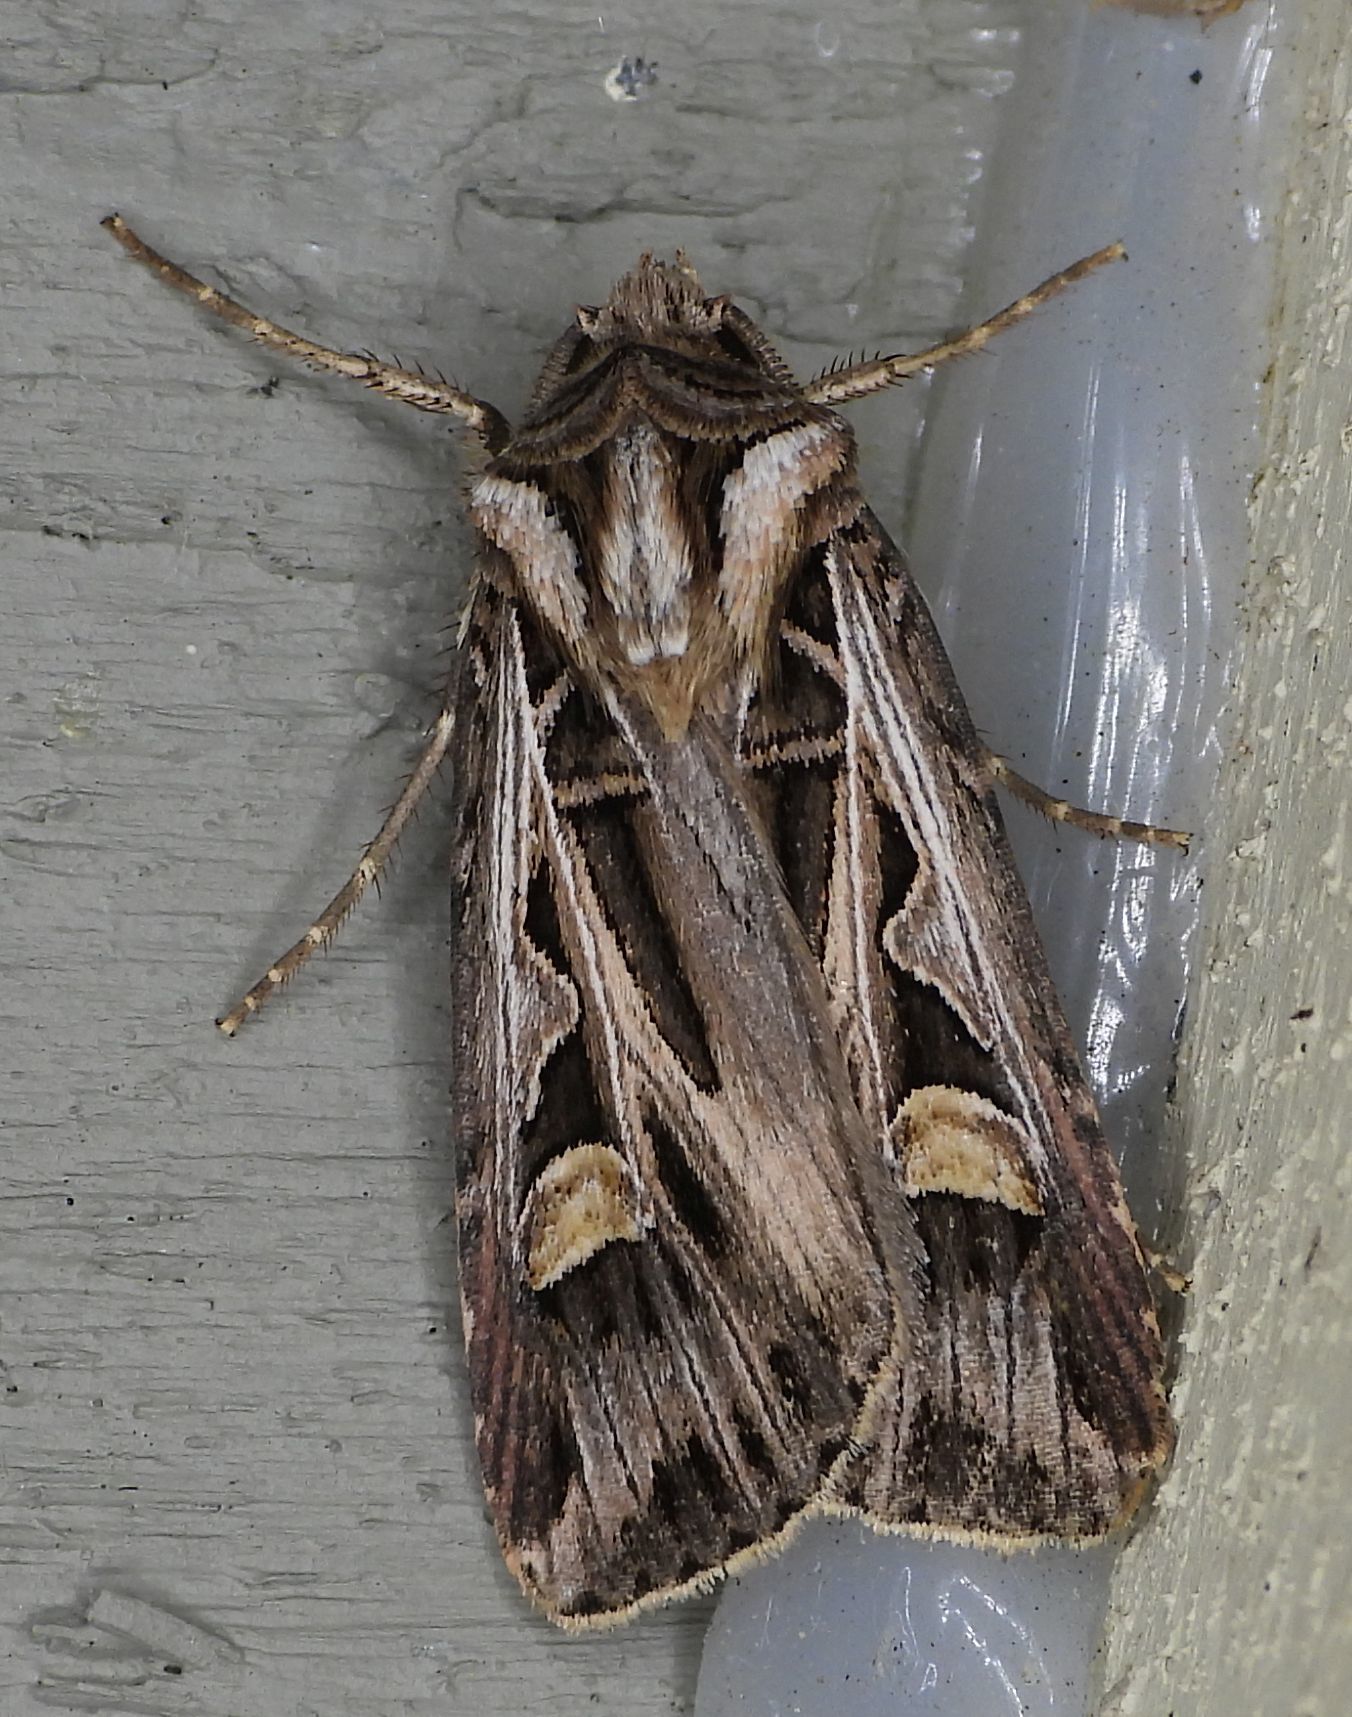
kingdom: Animalia
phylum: Arthropoda
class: Insecta
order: Lepidoptera
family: Noctuidae
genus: Feltia
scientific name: Feltia jaculifera
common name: Dingy cutworm moth
